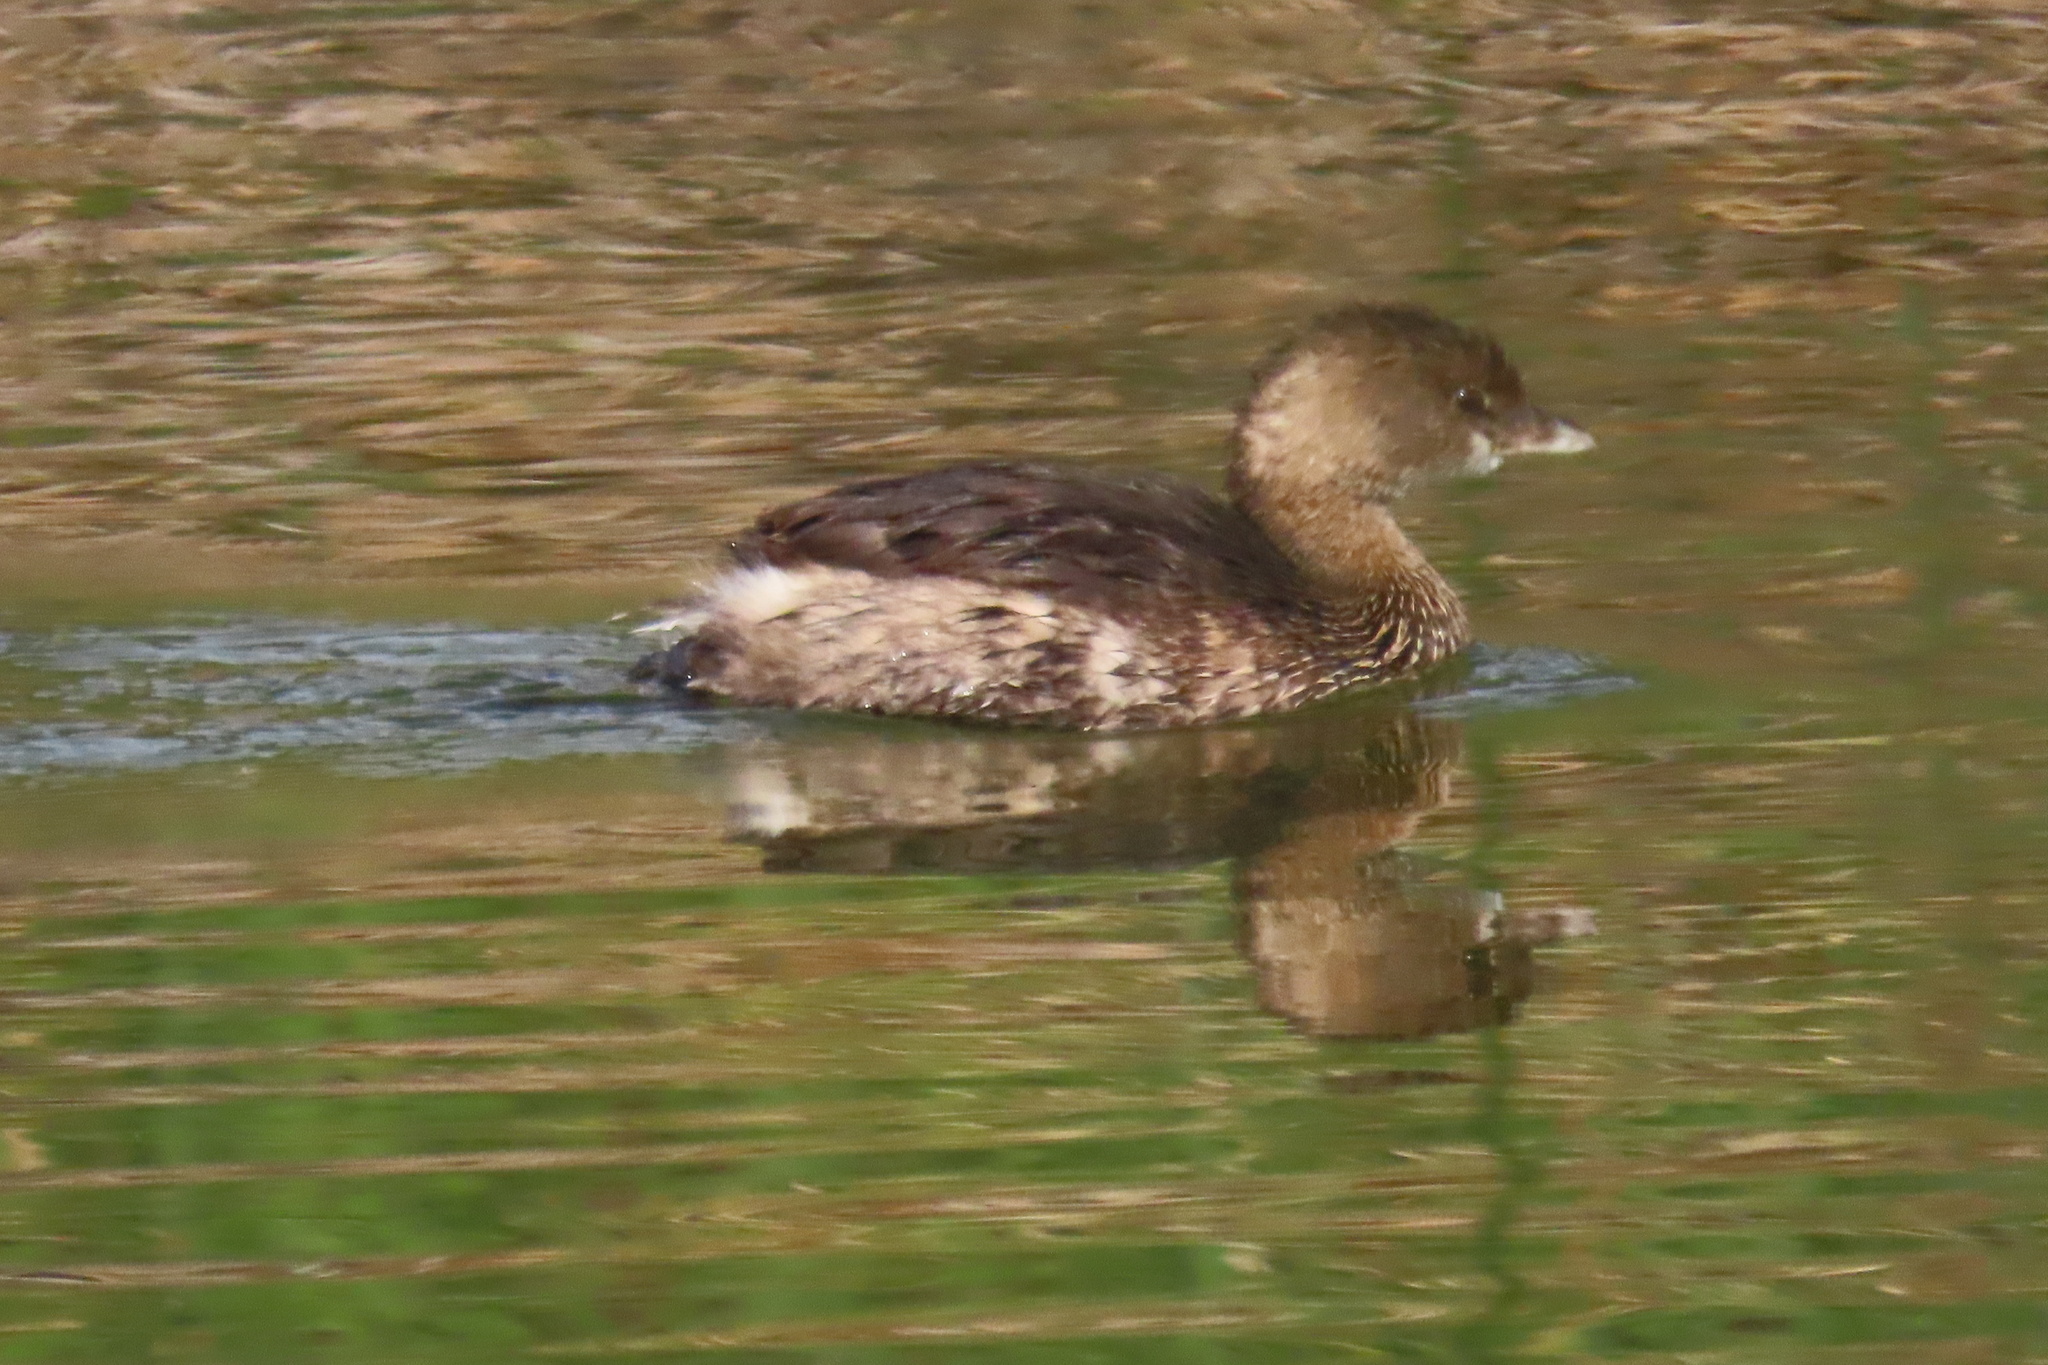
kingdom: Animalia
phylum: Chordata
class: Aves
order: Podicipediformes
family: Podicipedidae
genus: Podilymbus
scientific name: Podilymbus podiceps
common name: Pied-billed grebe
